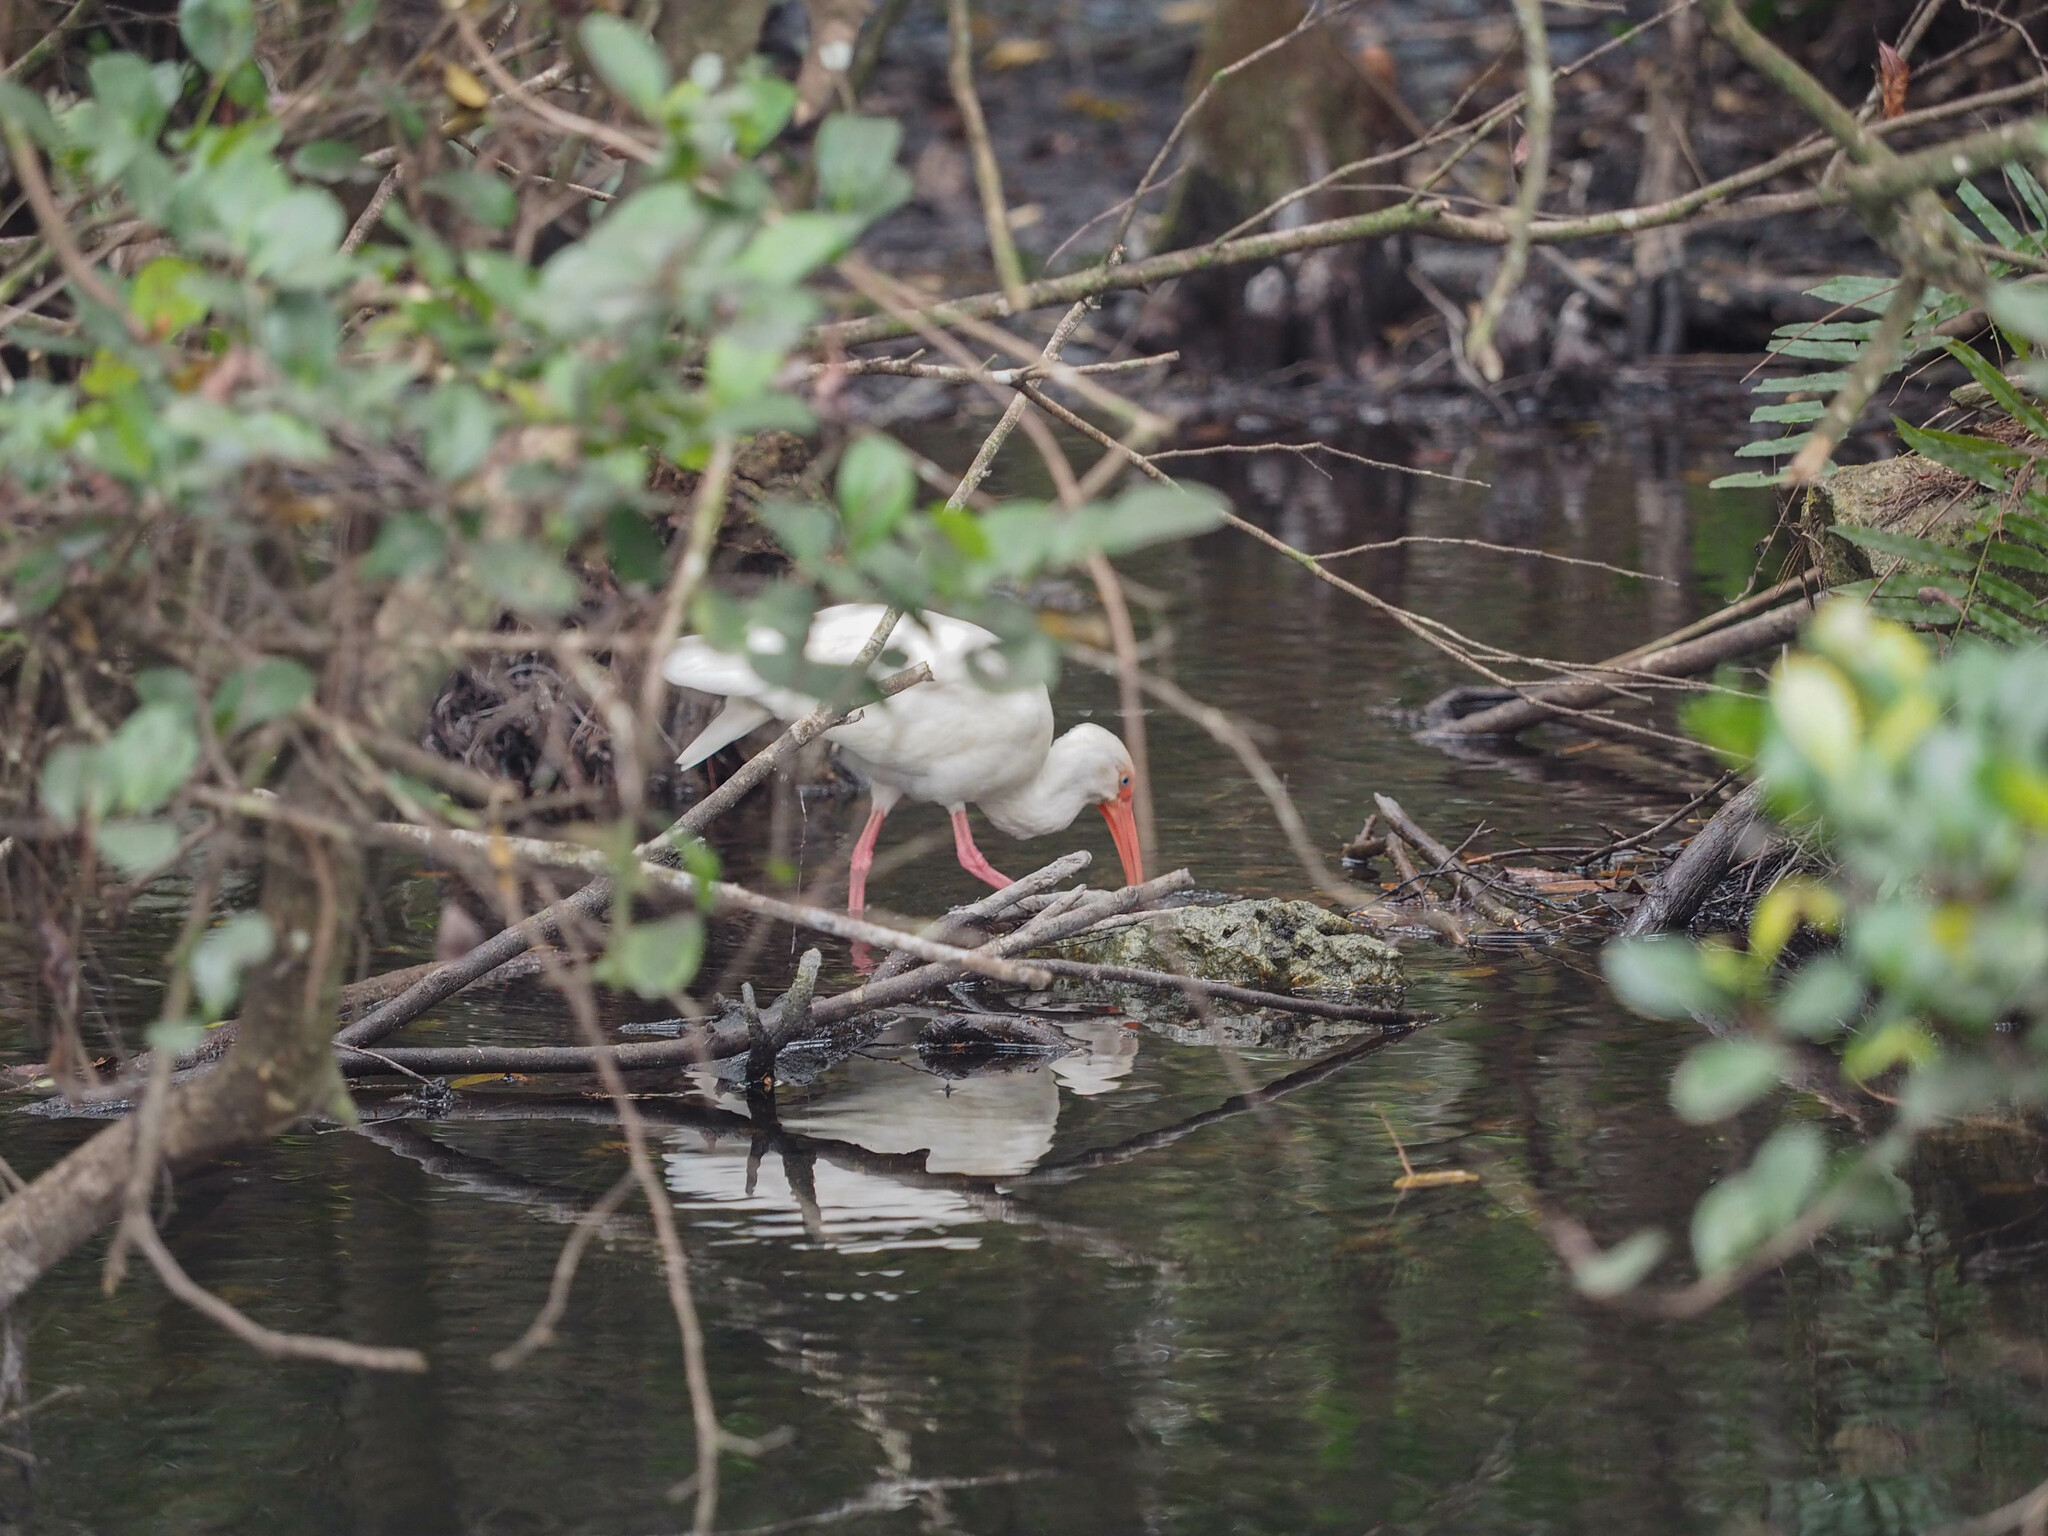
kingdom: Animalia
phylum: Chordata
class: Aves
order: Pelecaniformes
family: Threskiornithidae
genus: Eudocimus
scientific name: Eudocimus albus
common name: White ibis
